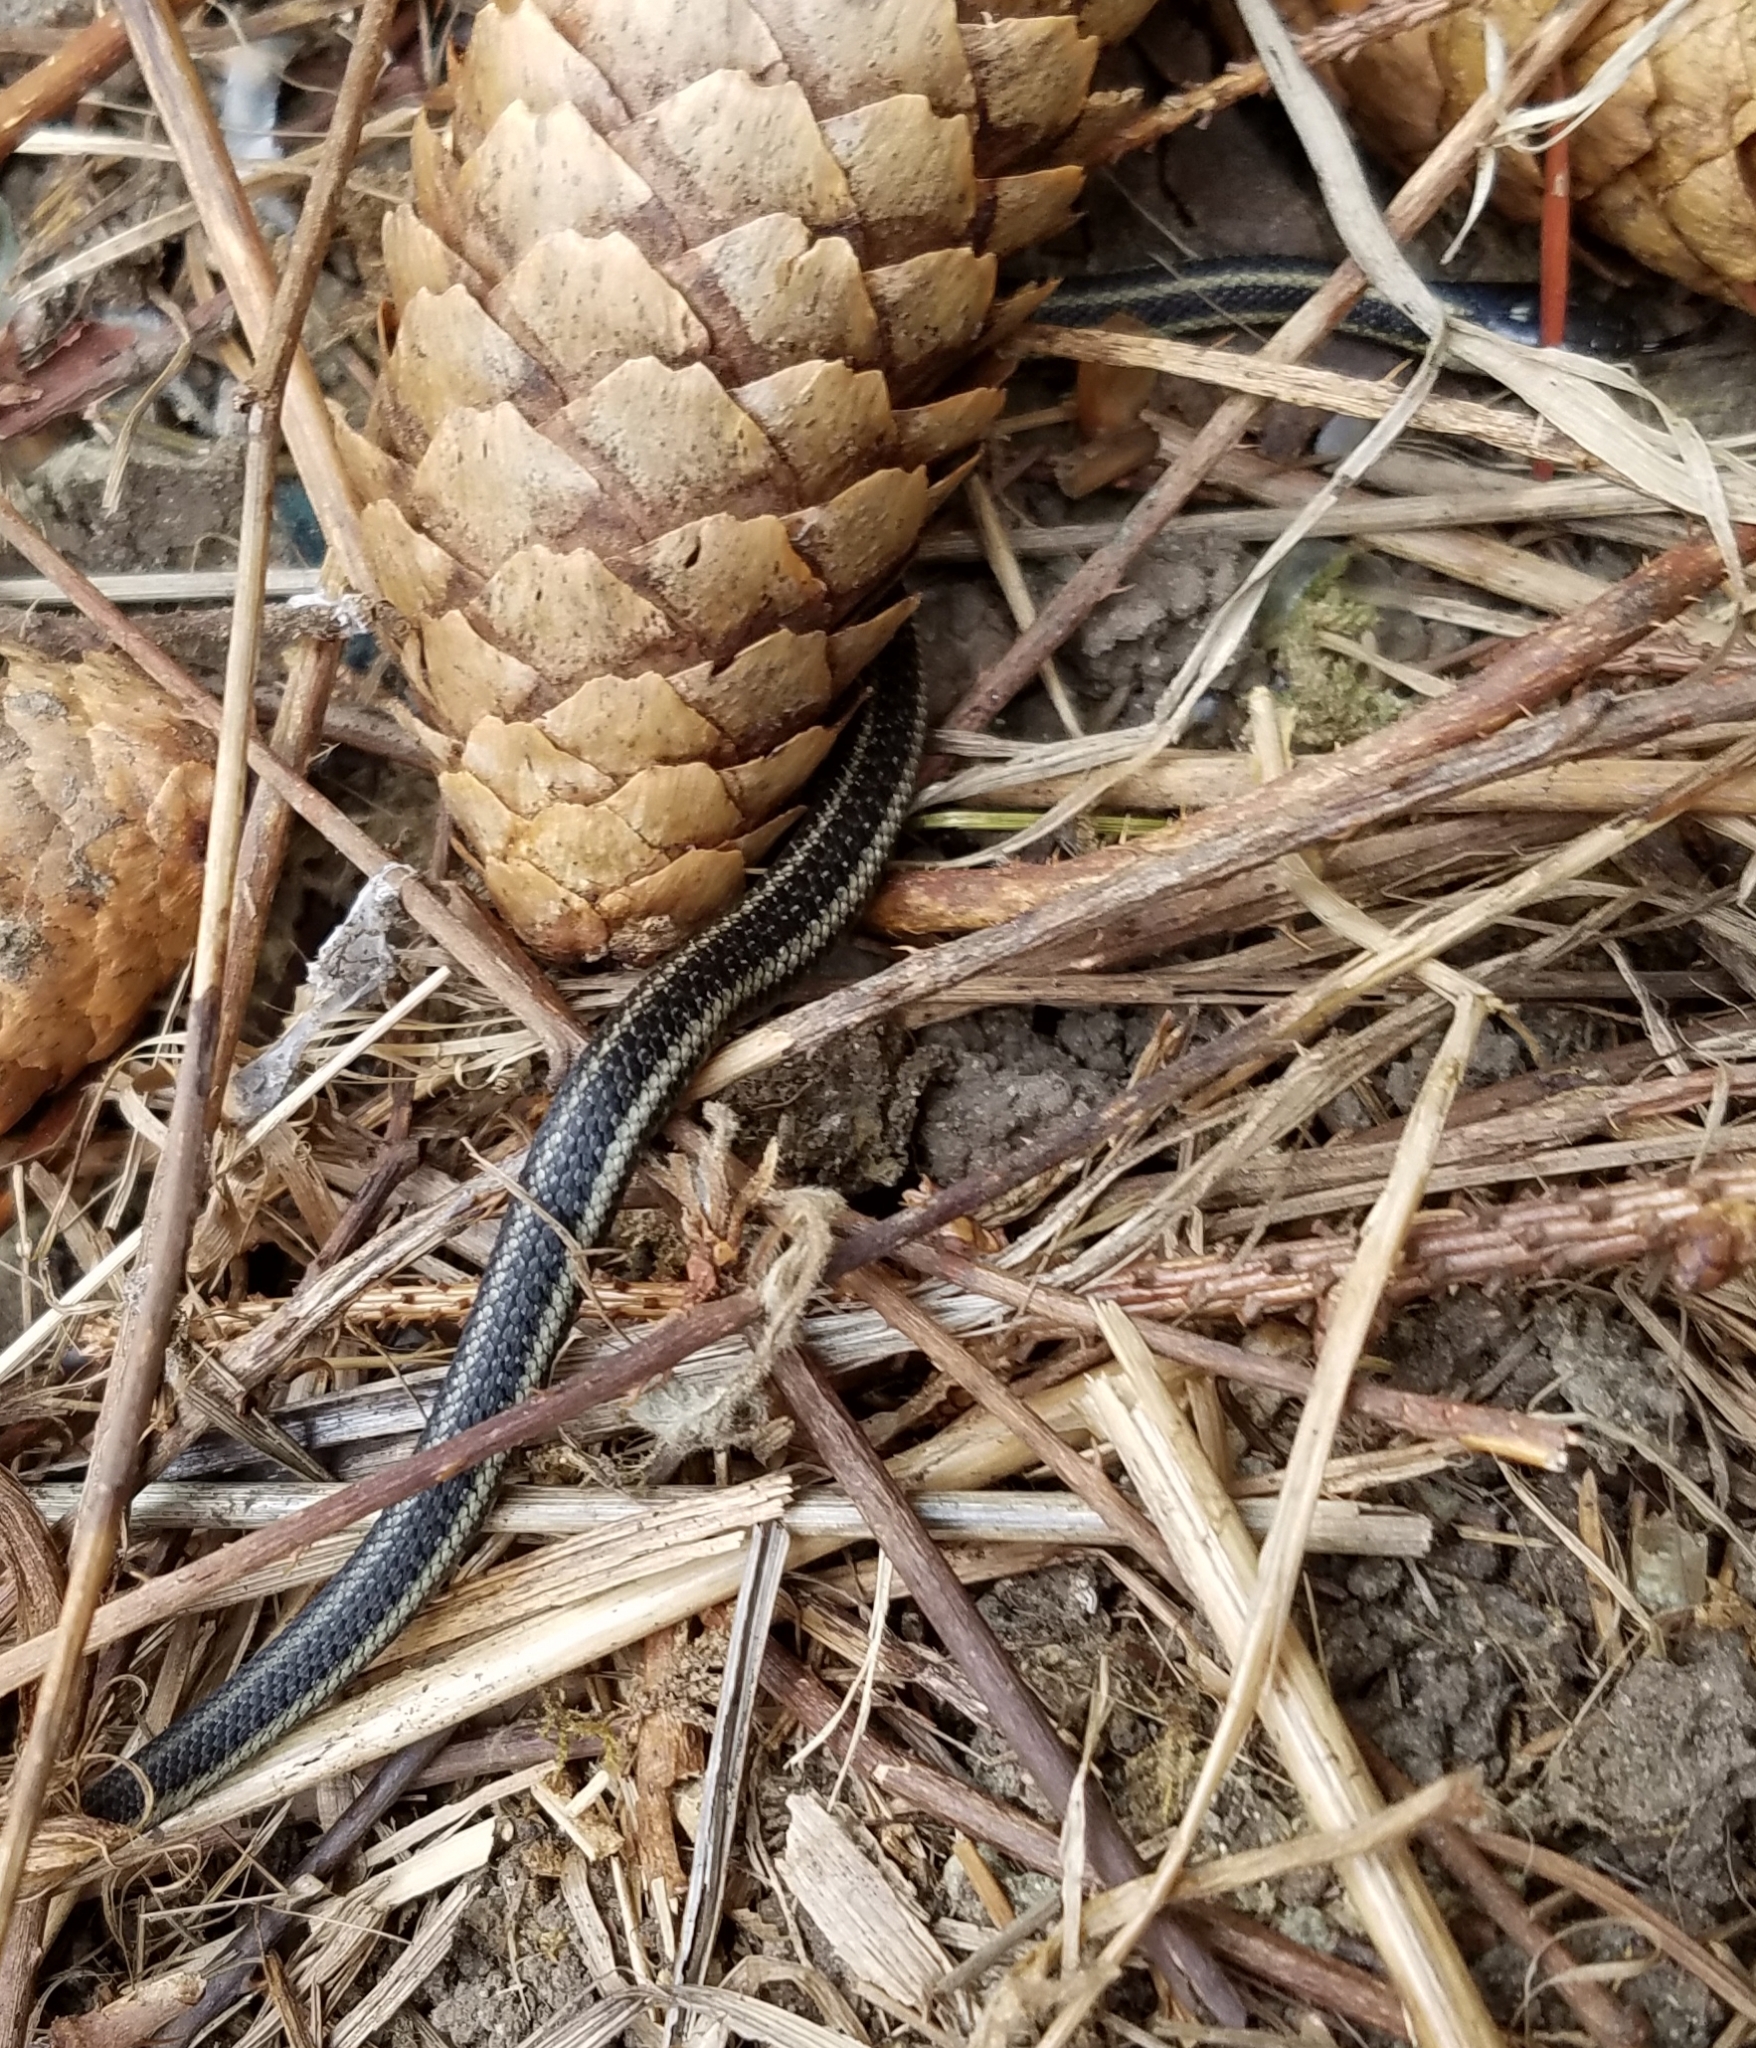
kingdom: Animalia
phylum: Chordata
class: Squamata
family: Colubridae
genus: Thamnophis
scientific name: Thamnophis ordinoides
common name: Northwestern garter snake
